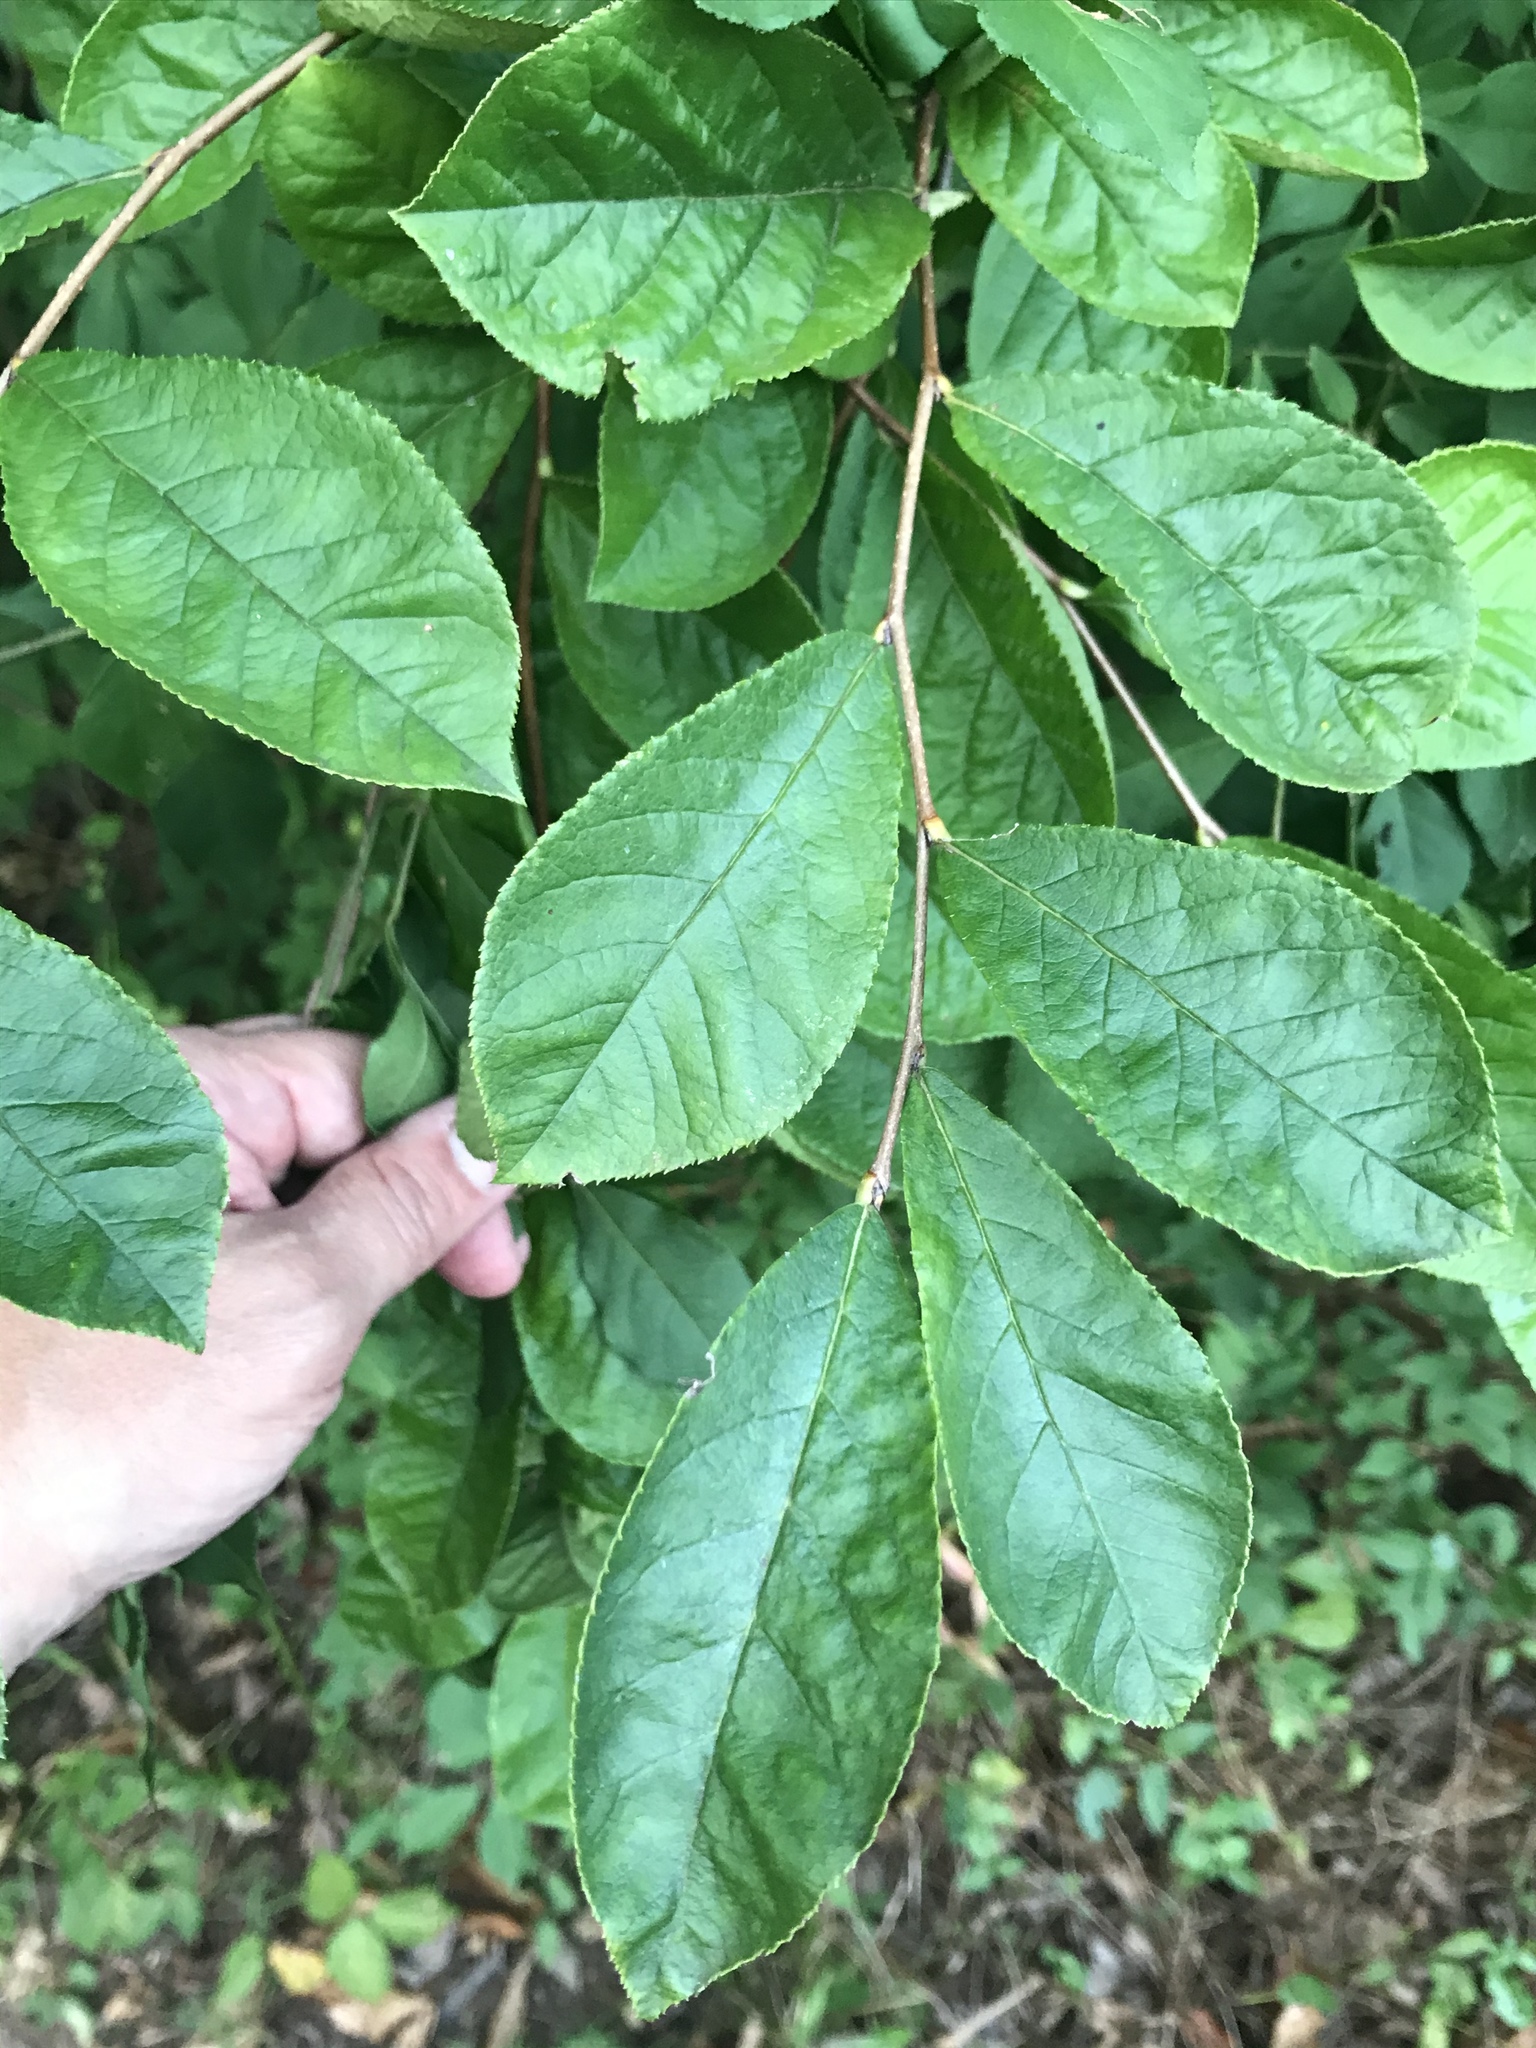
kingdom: Plantae
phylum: Tracheophyta
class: Magnoliopsida
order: Rosales
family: Rosaceae
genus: Pourthiaea
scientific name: Pourthiaea villosa
